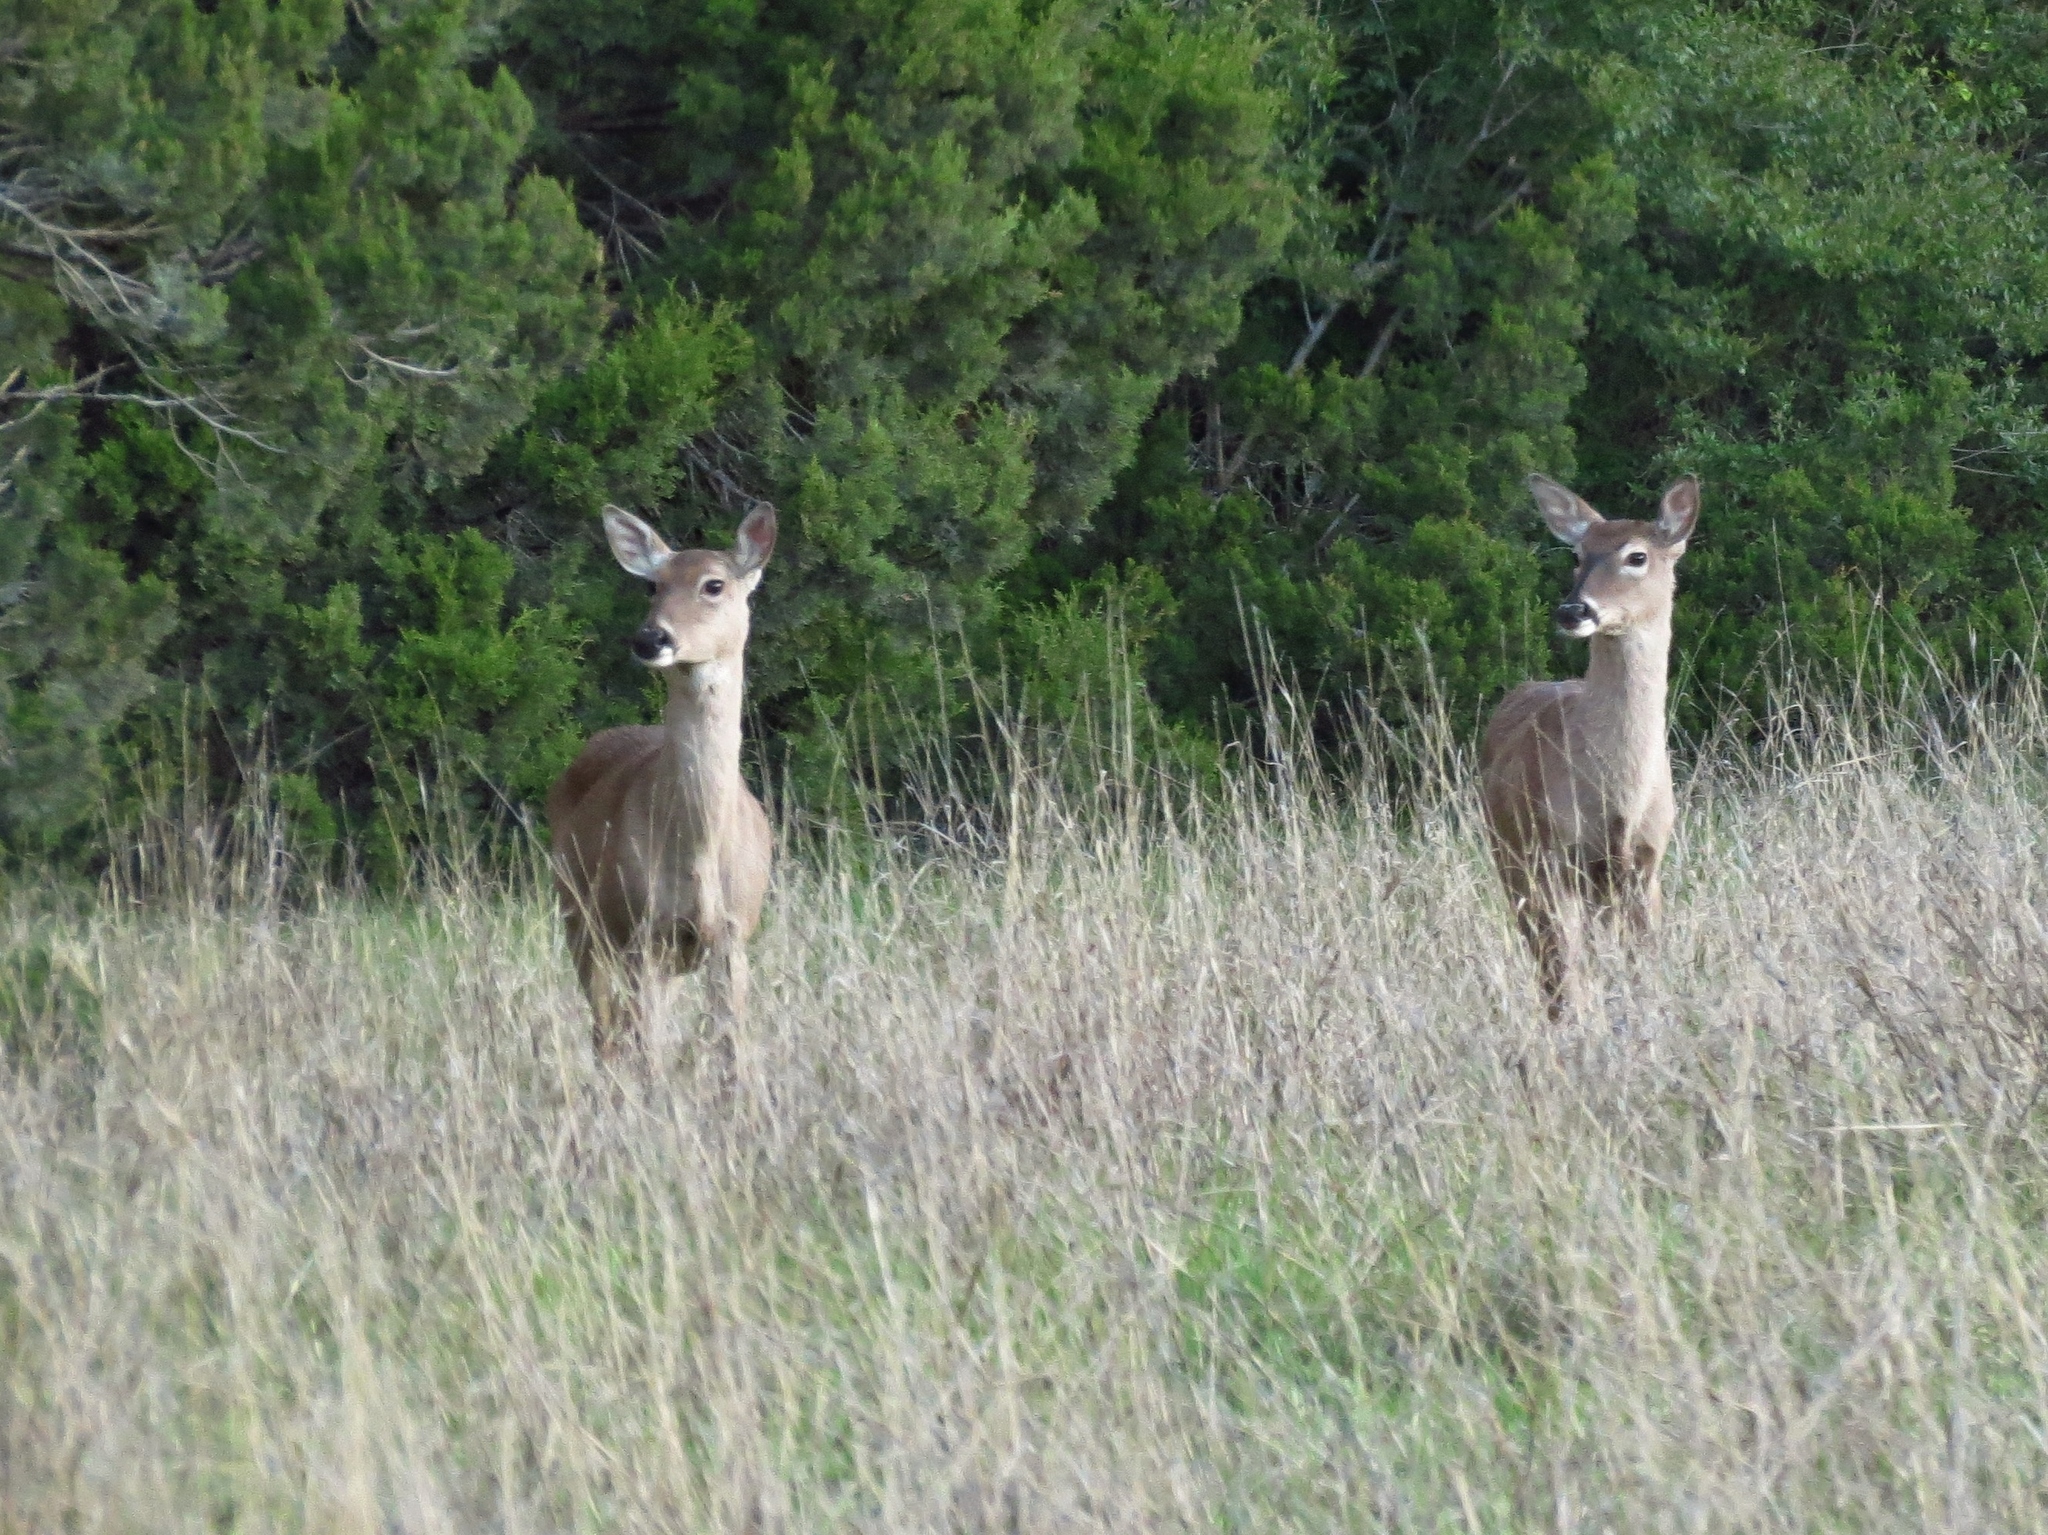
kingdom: Animalia
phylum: Chordata
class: Mammalia
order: Artiodactyla
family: Cervidae
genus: Odocoileus
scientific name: Odocoileus virginianus
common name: White-tailed deer
